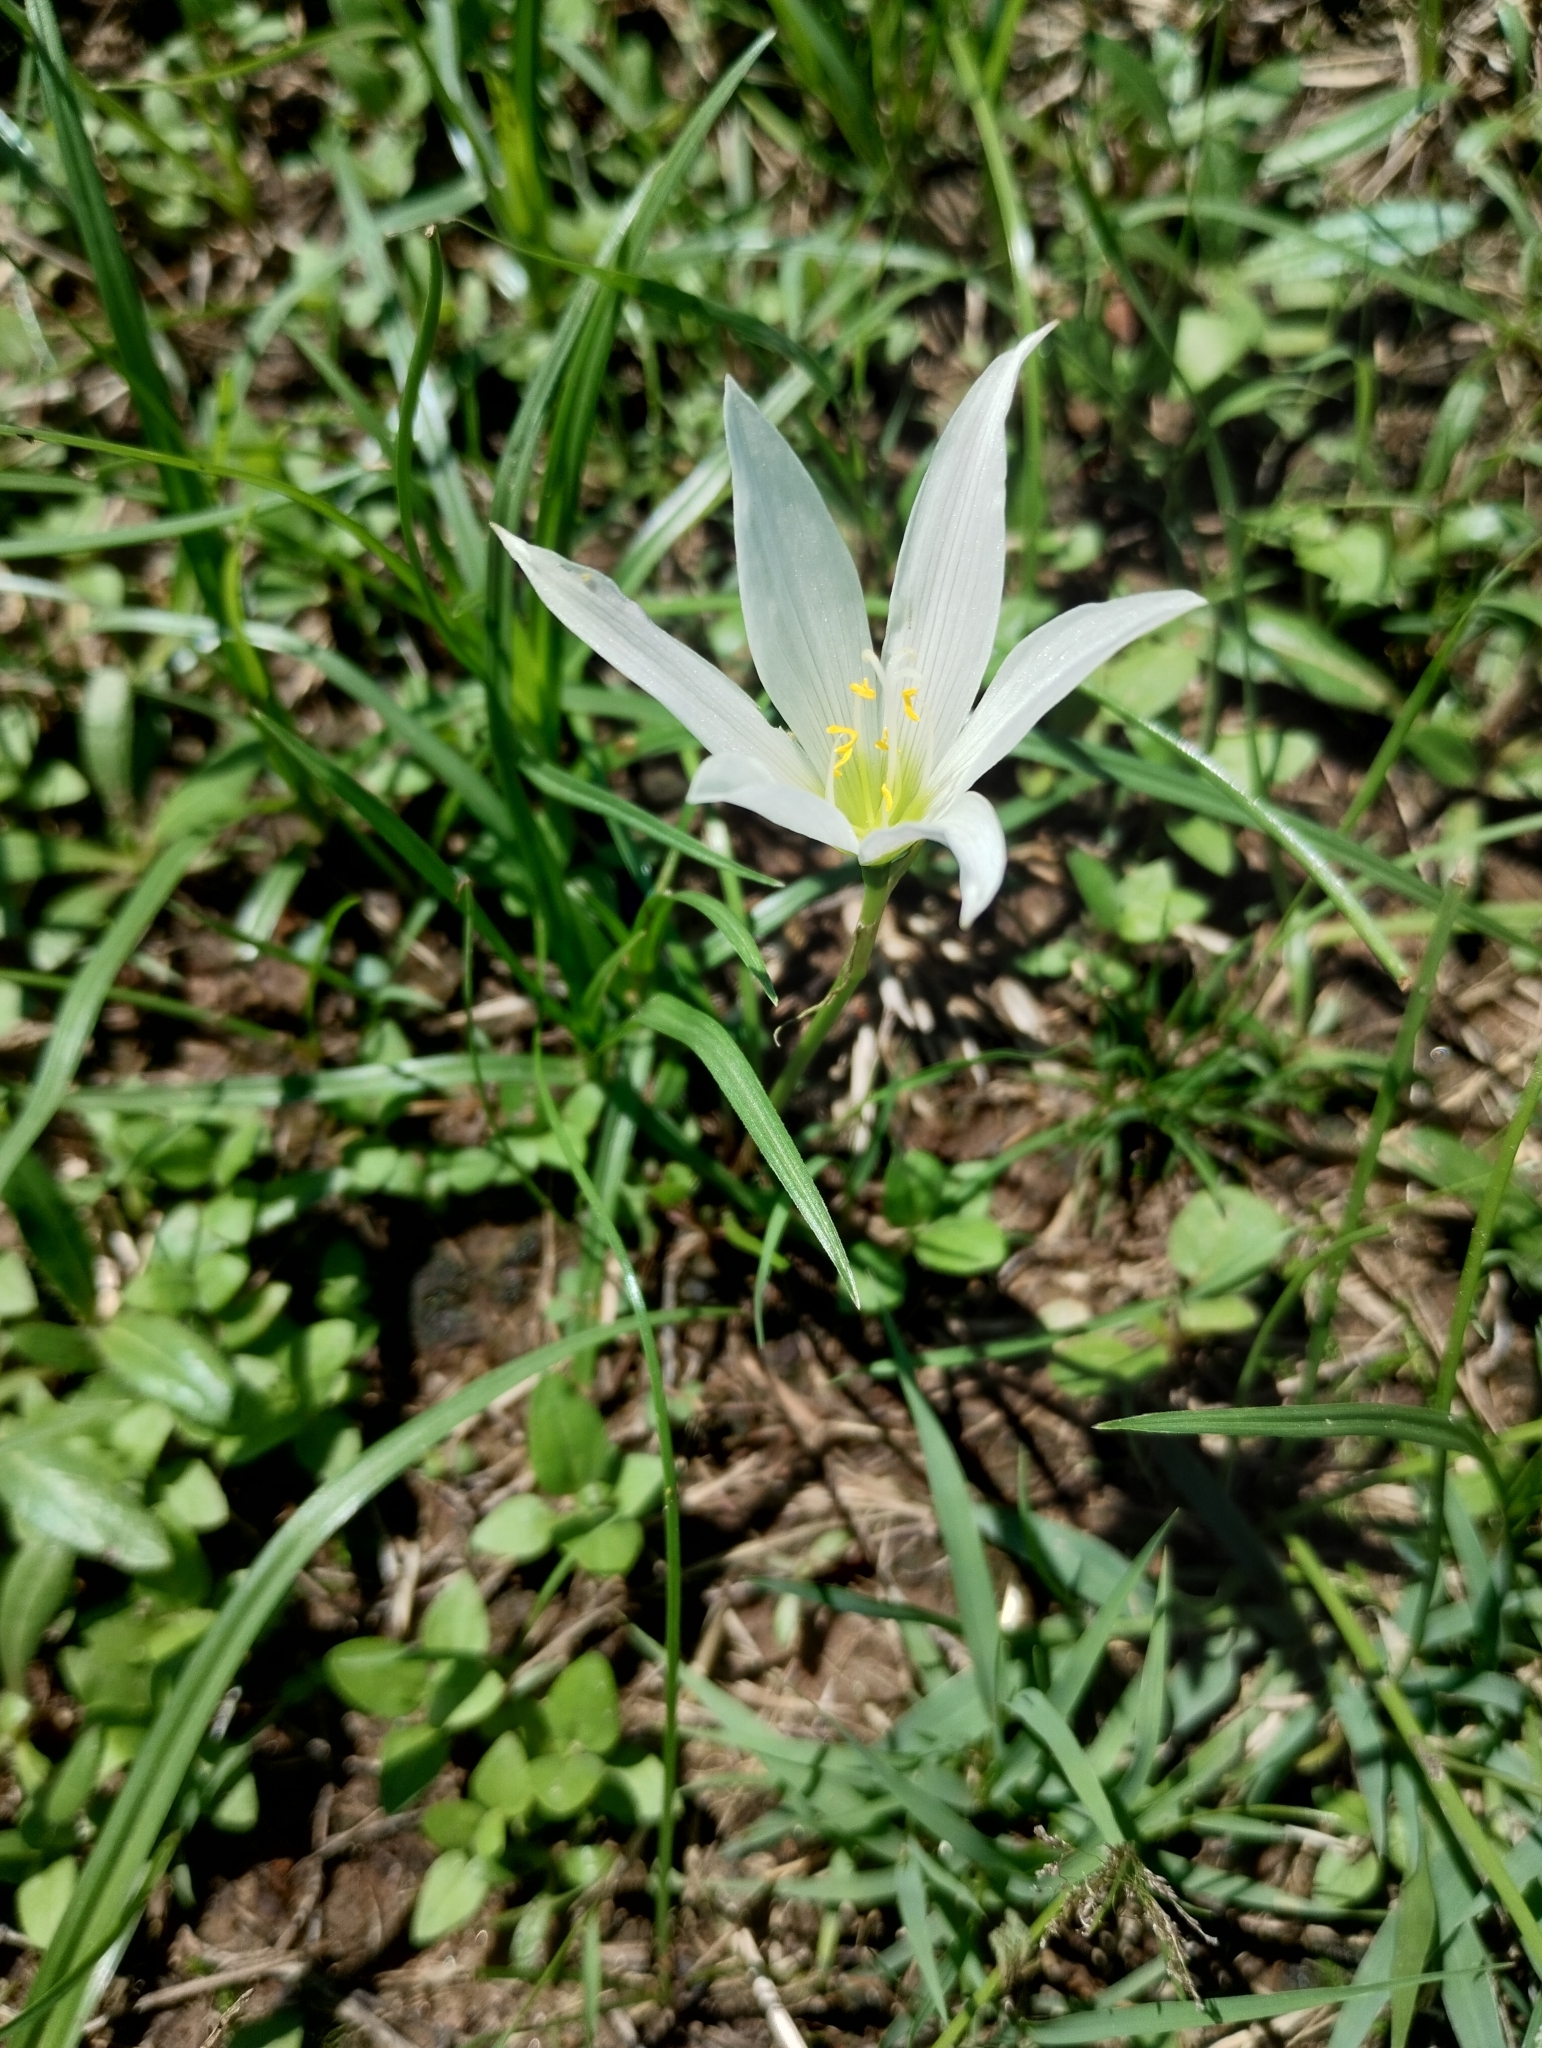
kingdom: Plantae
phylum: Tracheophyta
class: Liliopsida
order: Asparagales
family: Amaryllidaceae
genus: Zephyranthes
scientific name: Zephyranthes mesochloa
